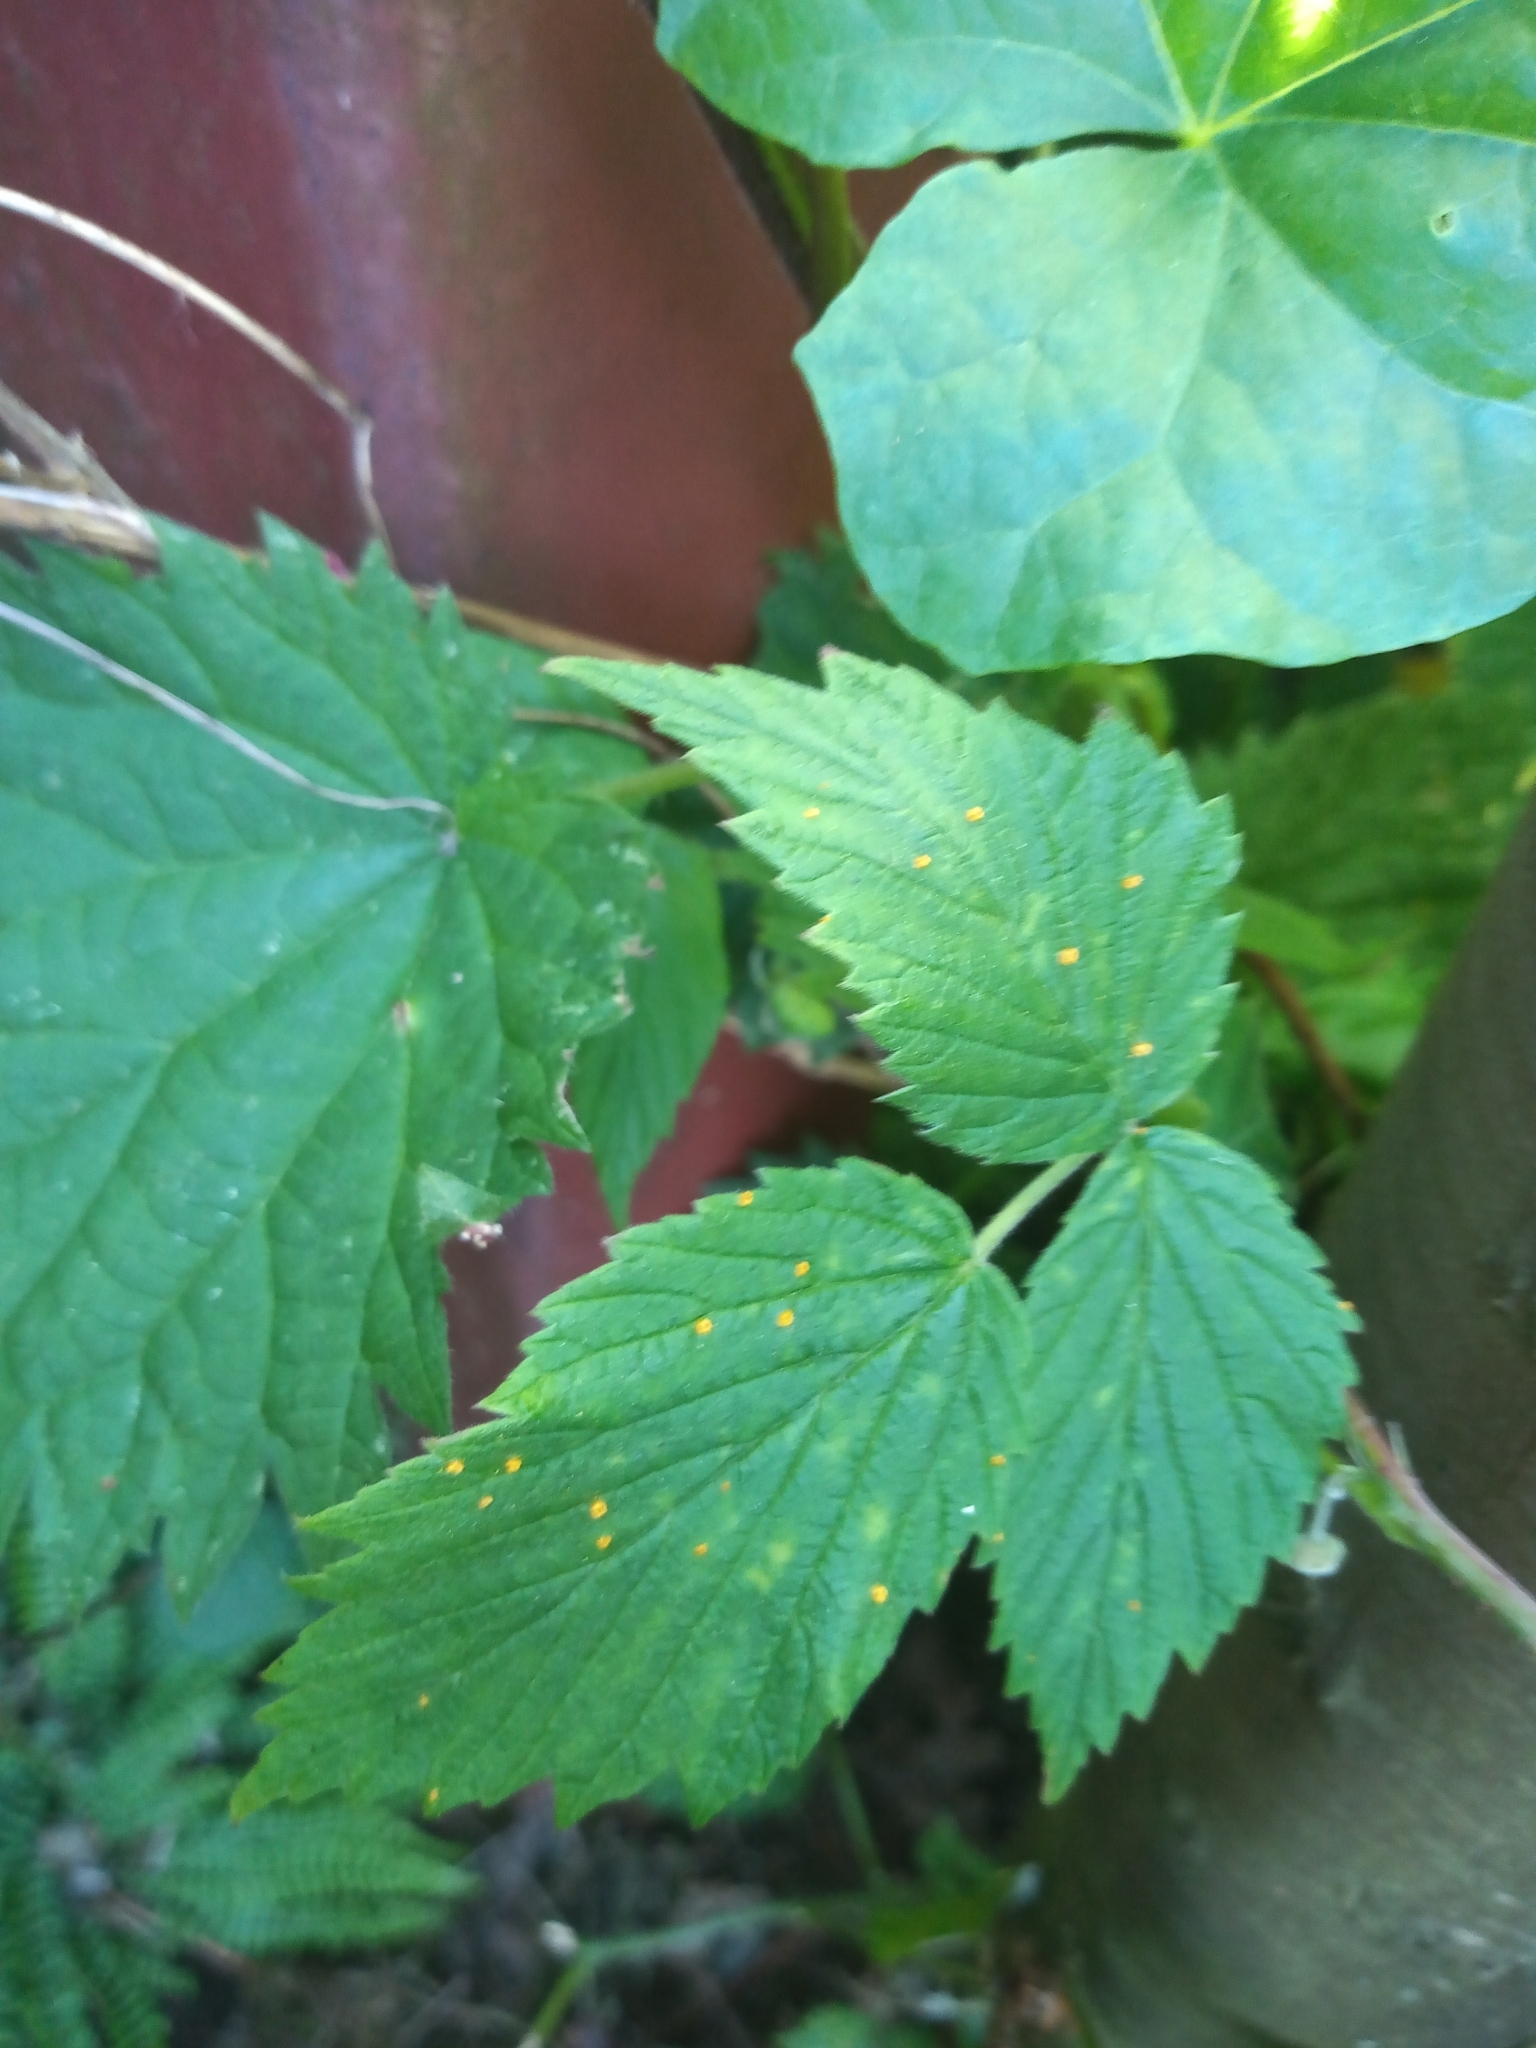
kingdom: Fungi
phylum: Basidiomycota
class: Pucciniomycetes
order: Pucciniales
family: Phragmidiaceae
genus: Phragmidium
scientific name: Phragmidium rubi-idaei
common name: Raspberry rust
